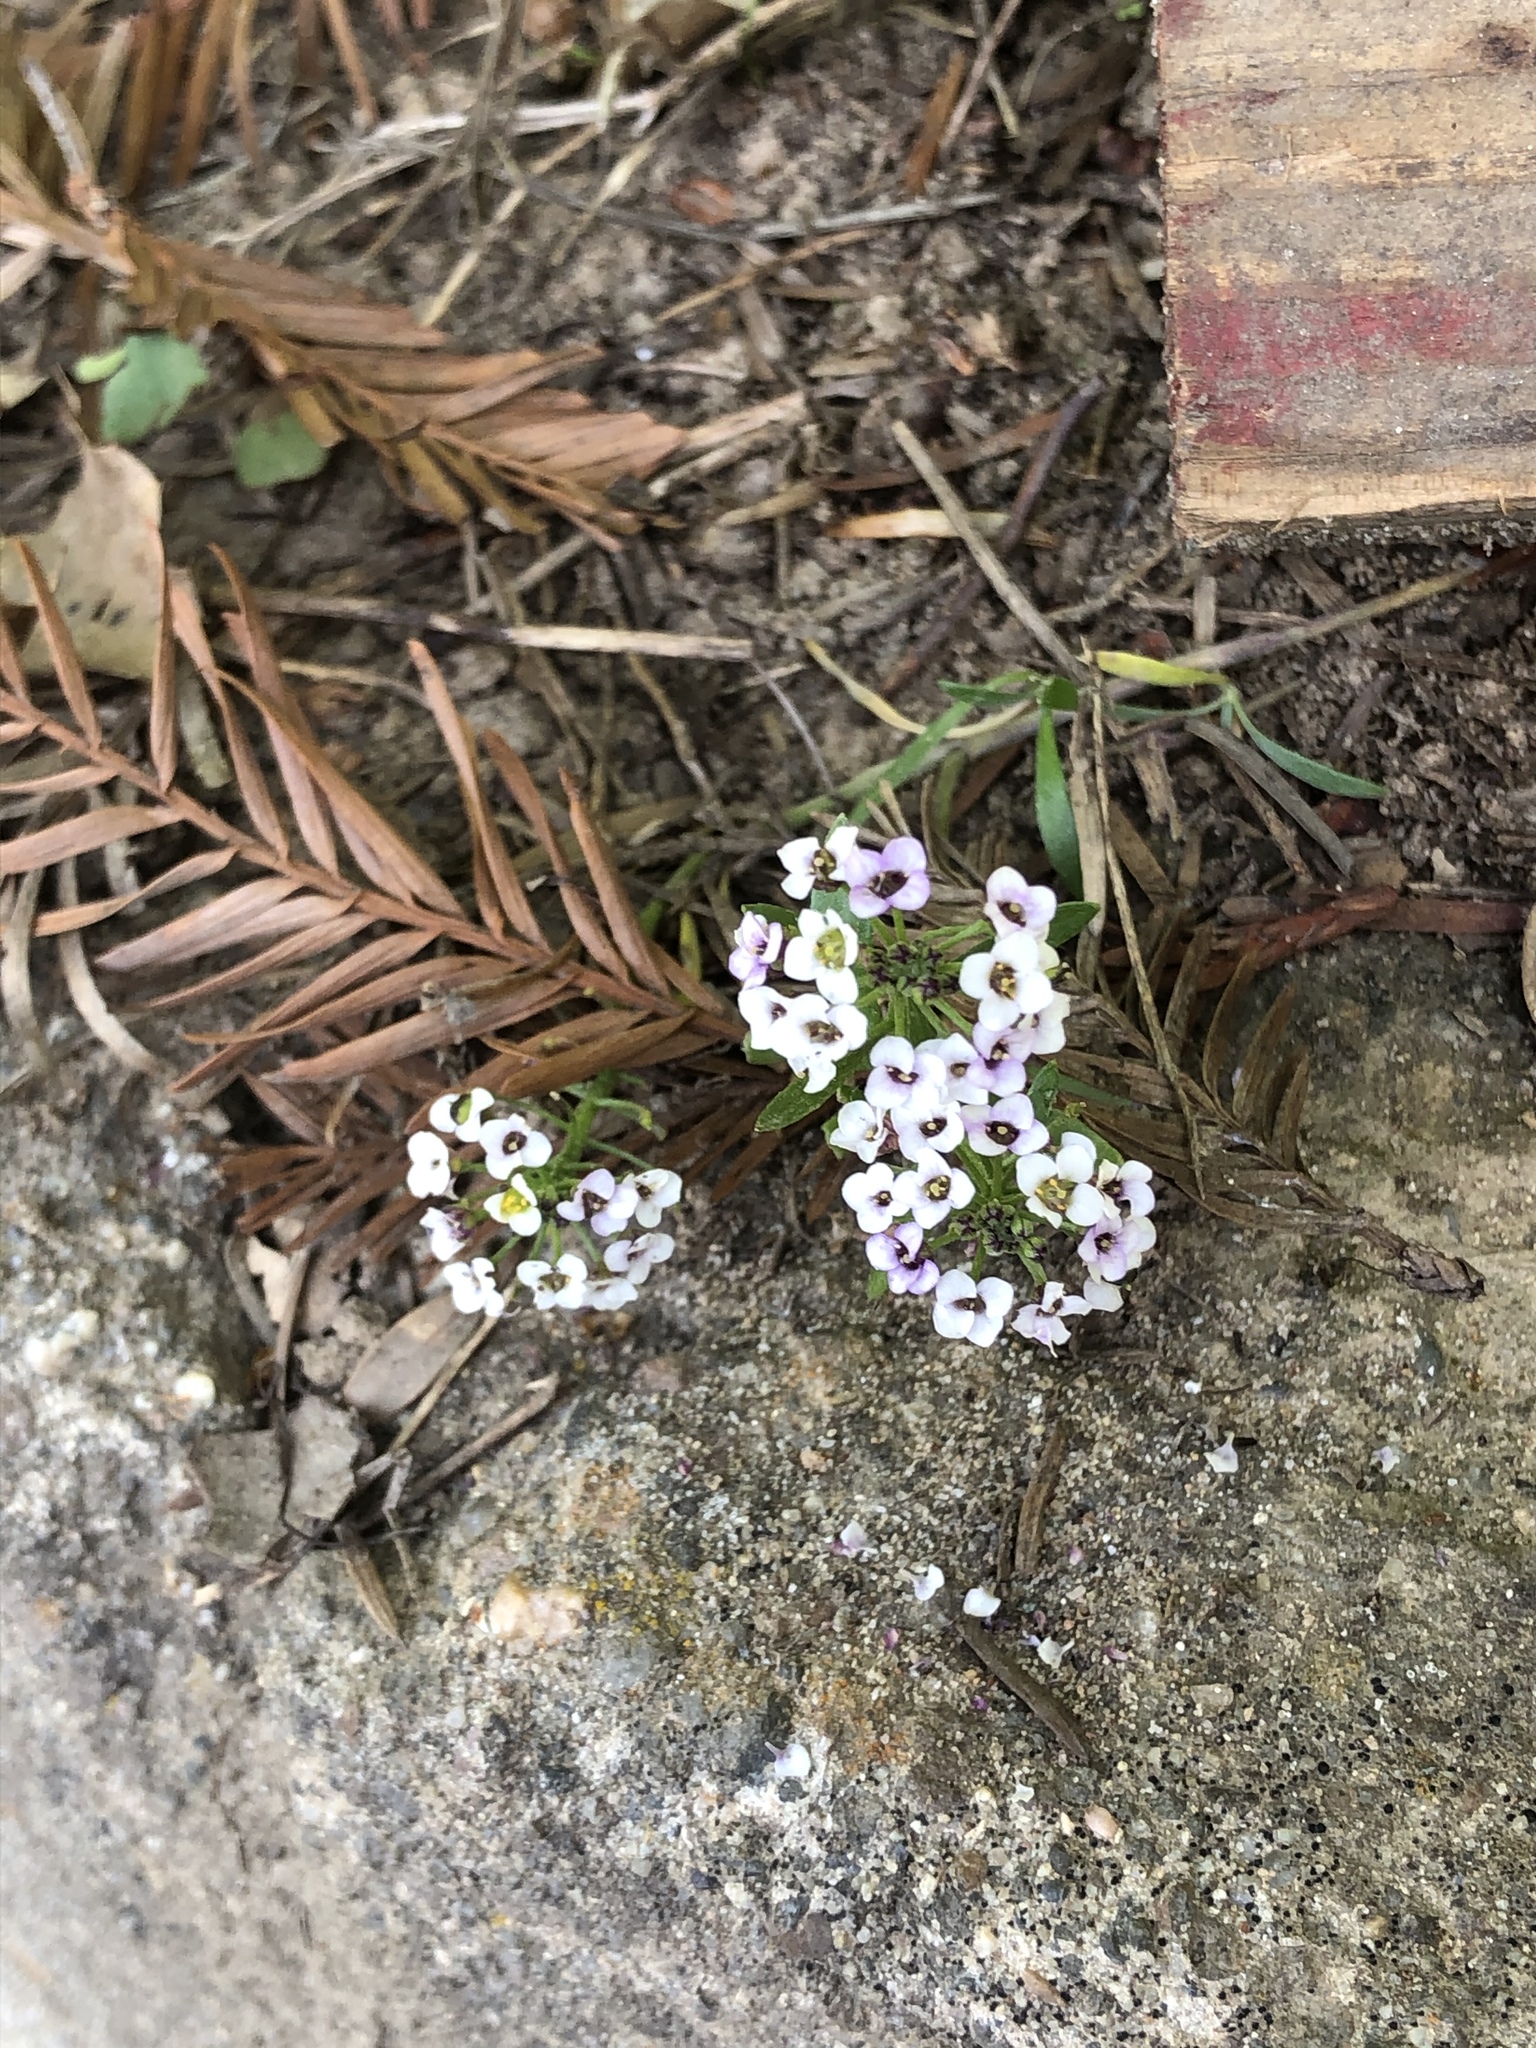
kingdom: Plantae
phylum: Tracheophyta
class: Magnoliopsida
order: Brassicales
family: Brassicaceae
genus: Lobularia
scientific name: Lobularia maritima
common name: Sweet alison
